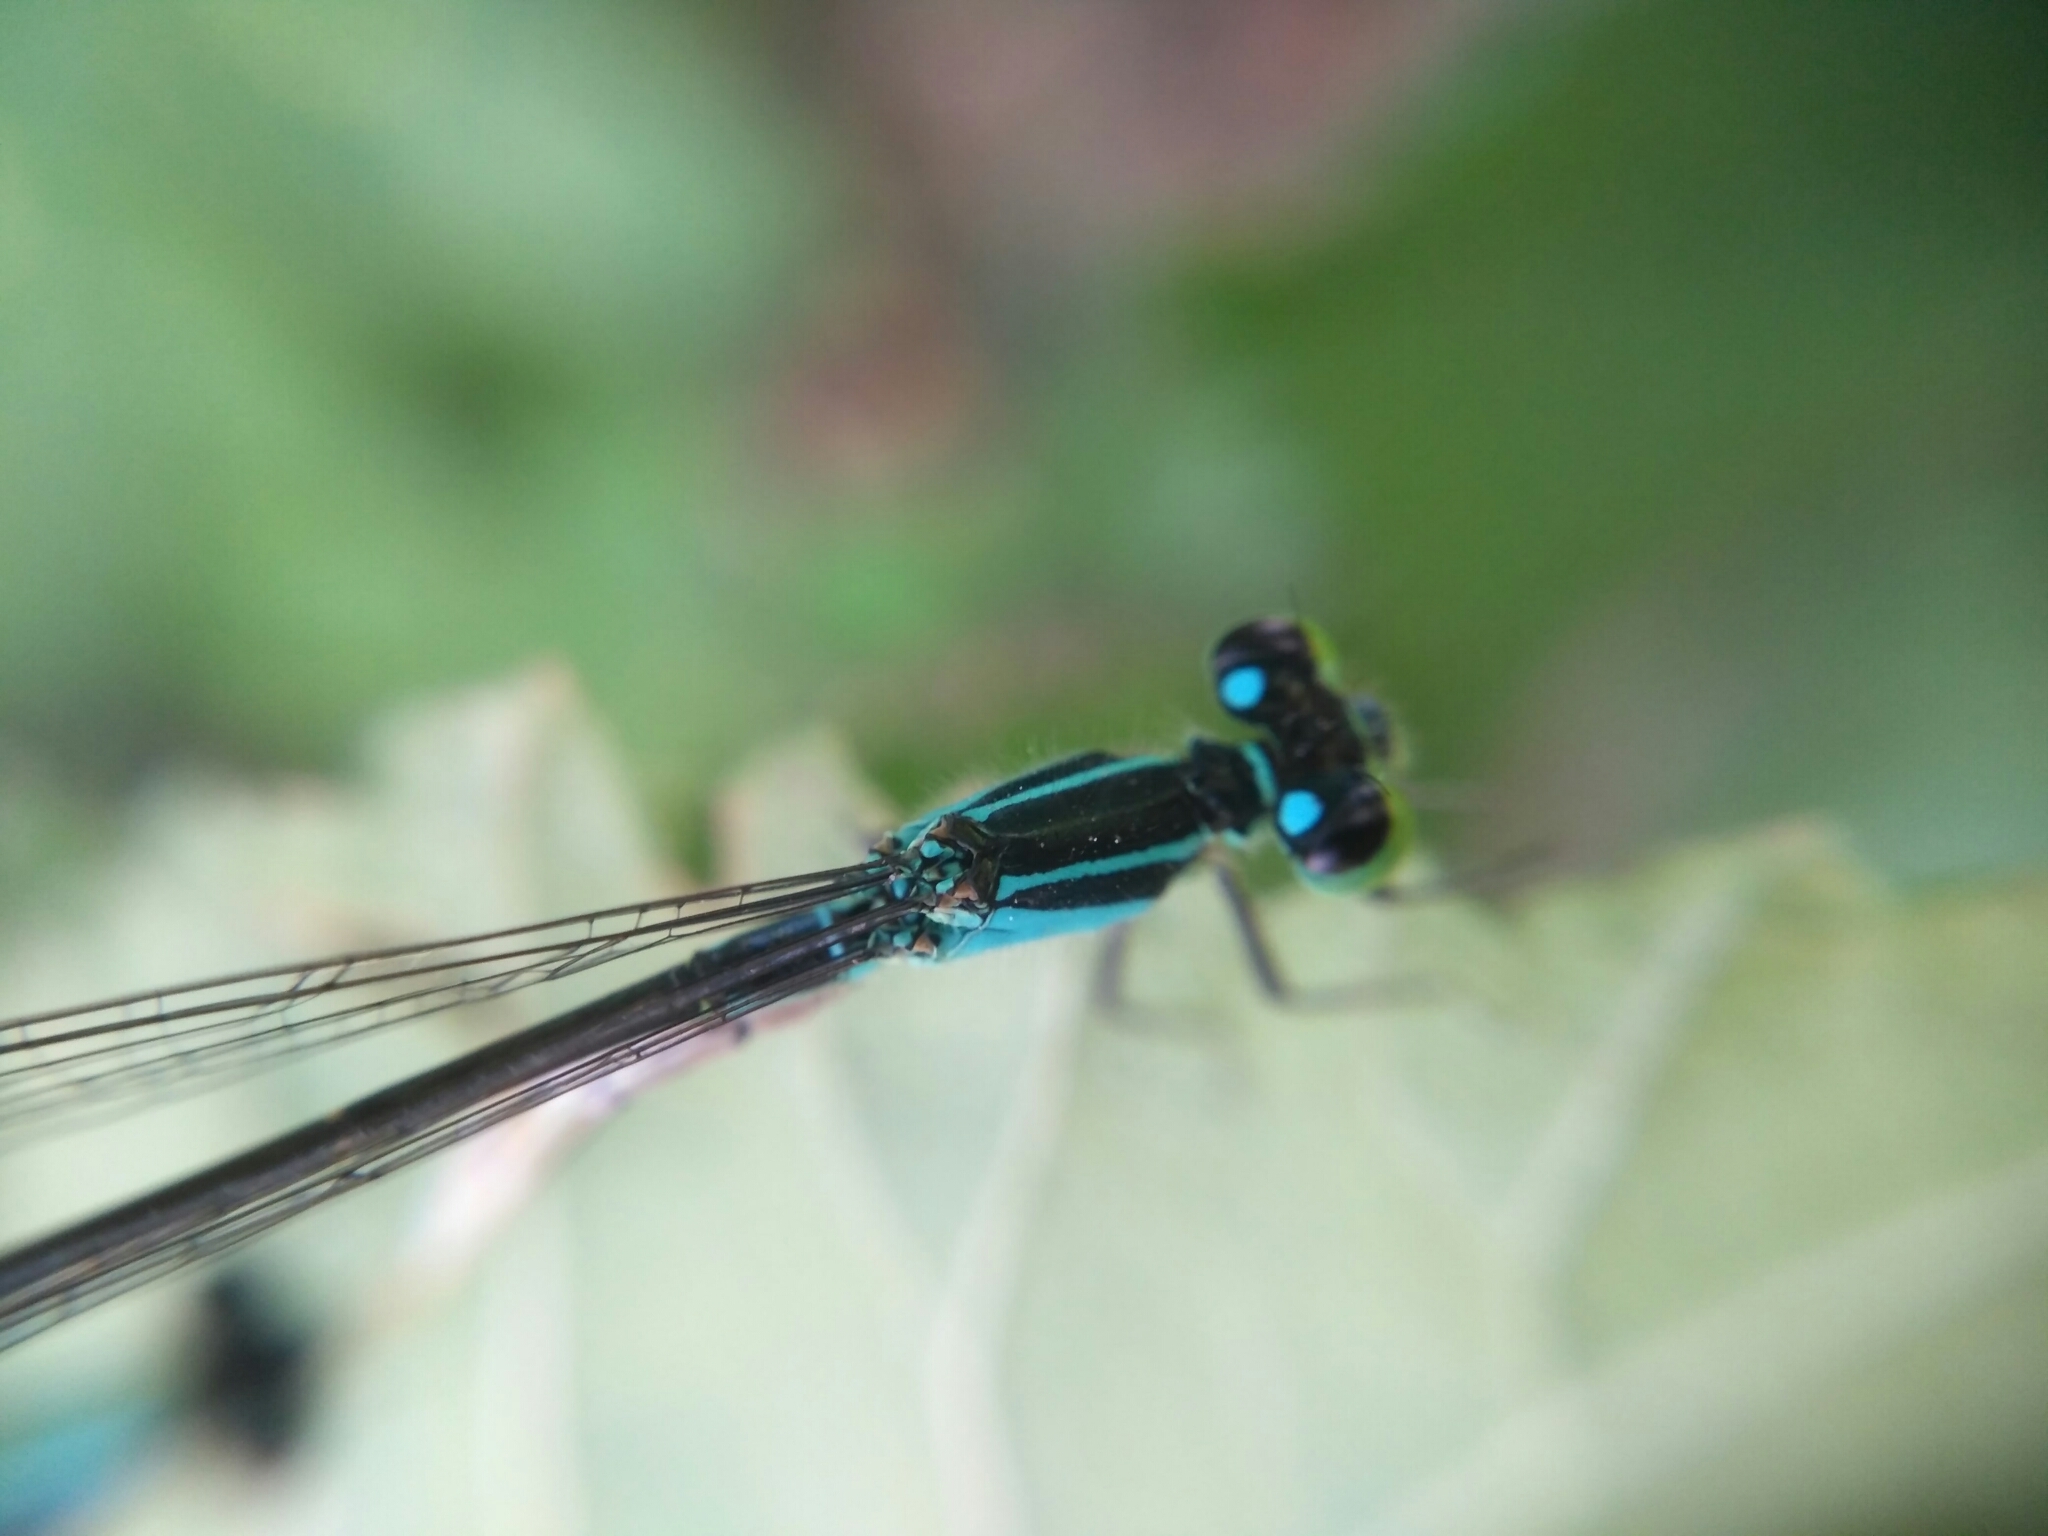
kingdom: Animalia
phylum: Arthropoda
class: Insecta
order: Odonata
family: Coenagrionidae
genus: Ischnura
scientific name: Ischnura elegans
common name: Blue-tailed damselfly
